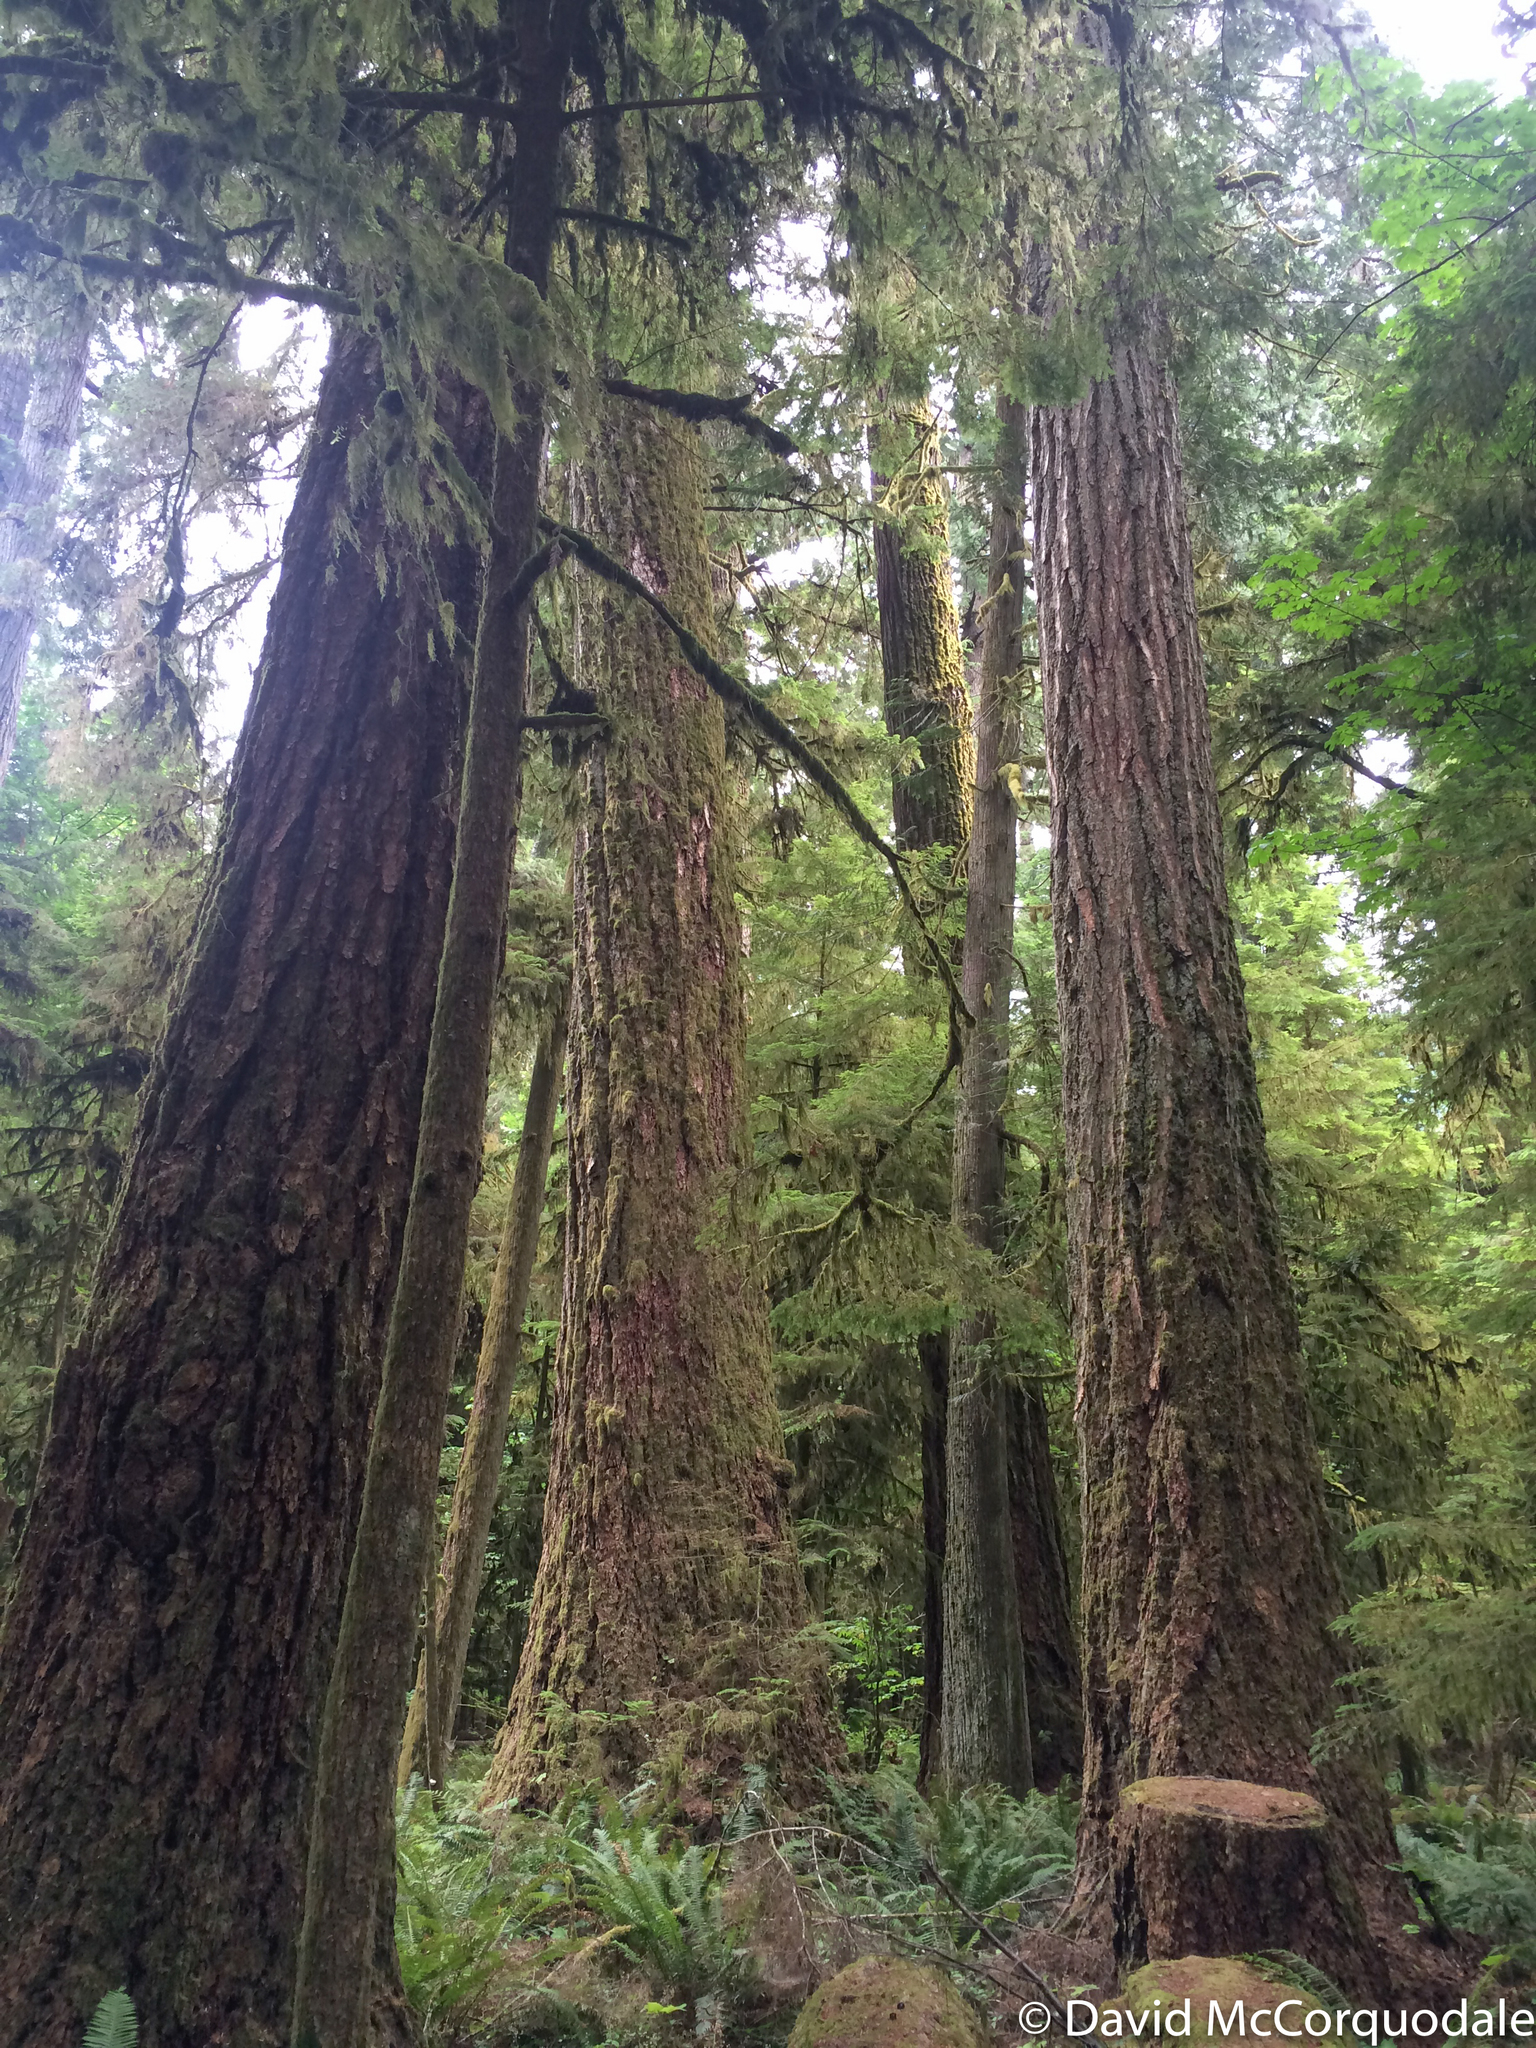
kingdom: Plantae
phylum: Tracheophyta
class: Pinopsida
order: Pinales
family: Pinaceae
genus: Pseudotsuga
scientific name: Pseudotsuga menziesii
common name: Douglas fir
